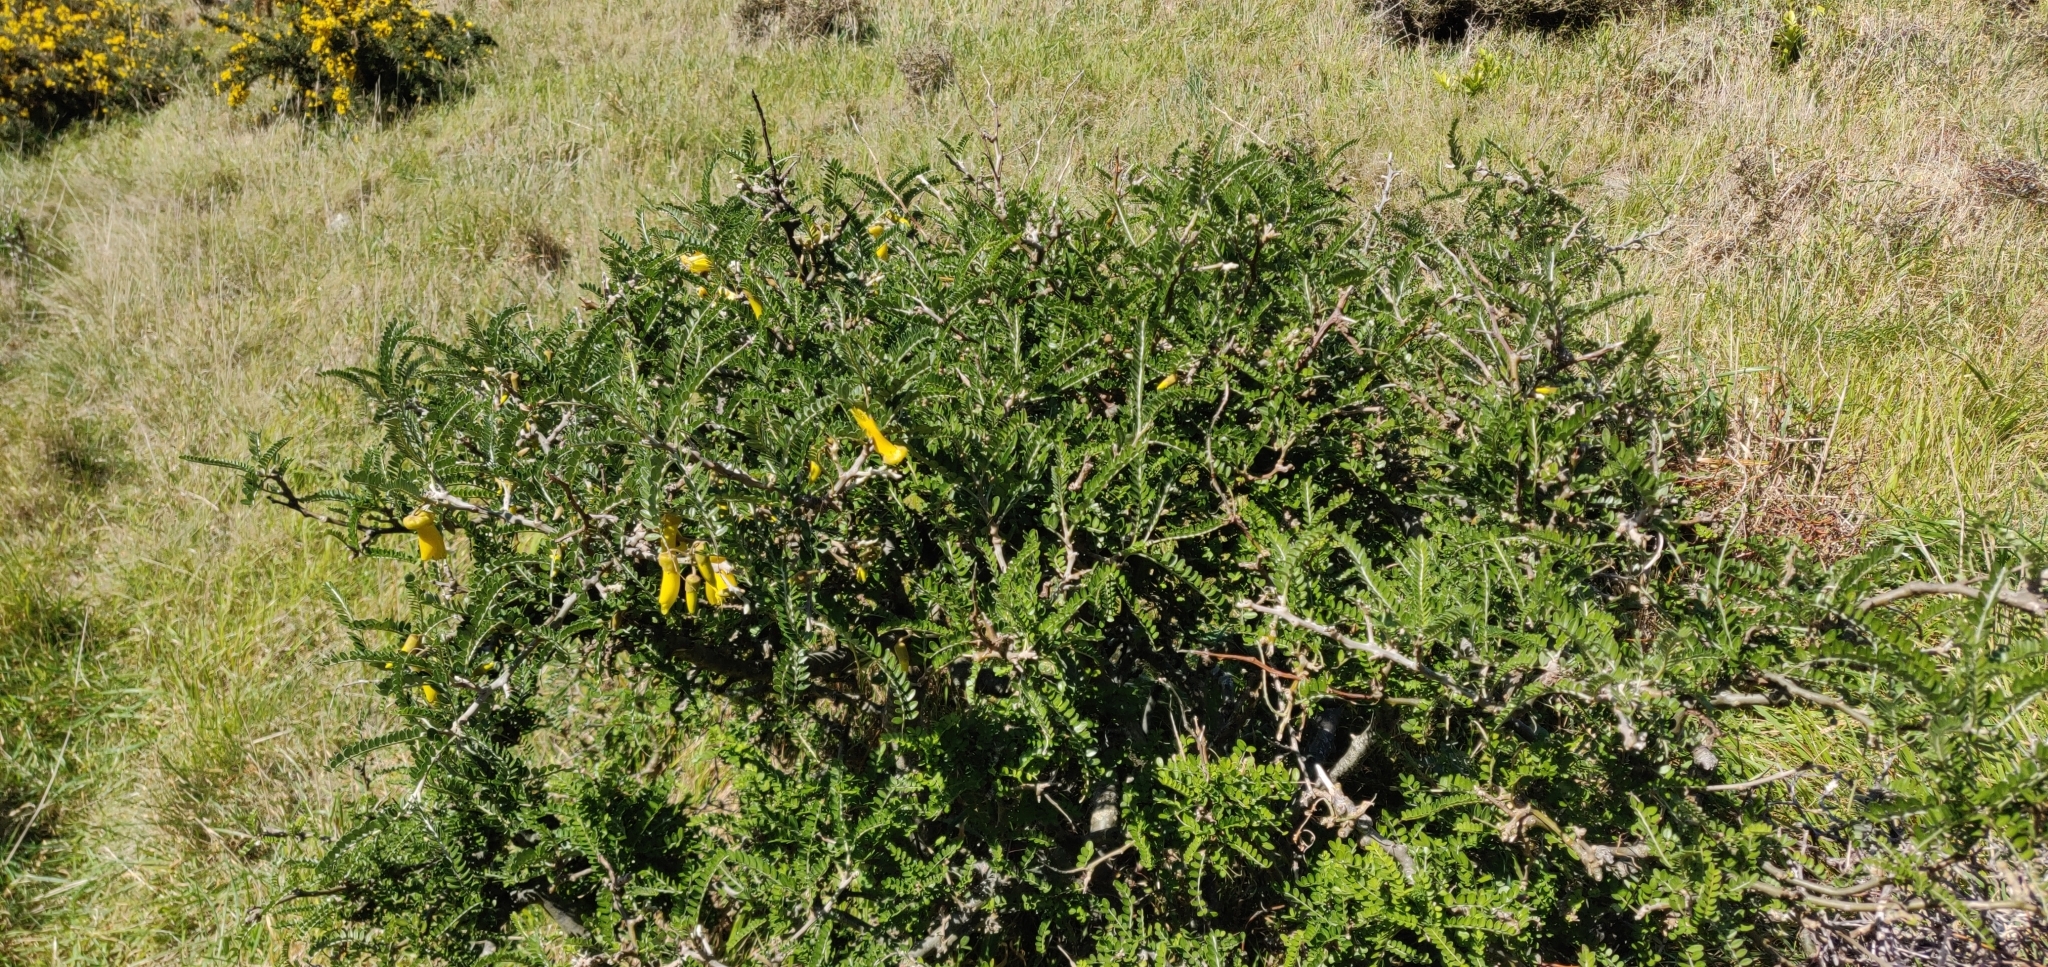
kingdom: Plantae
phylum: Tracheophyta
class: Magnoliopsida
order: Fabales
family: Fabaceae
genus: Sophora
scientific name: Sophora molloyi
